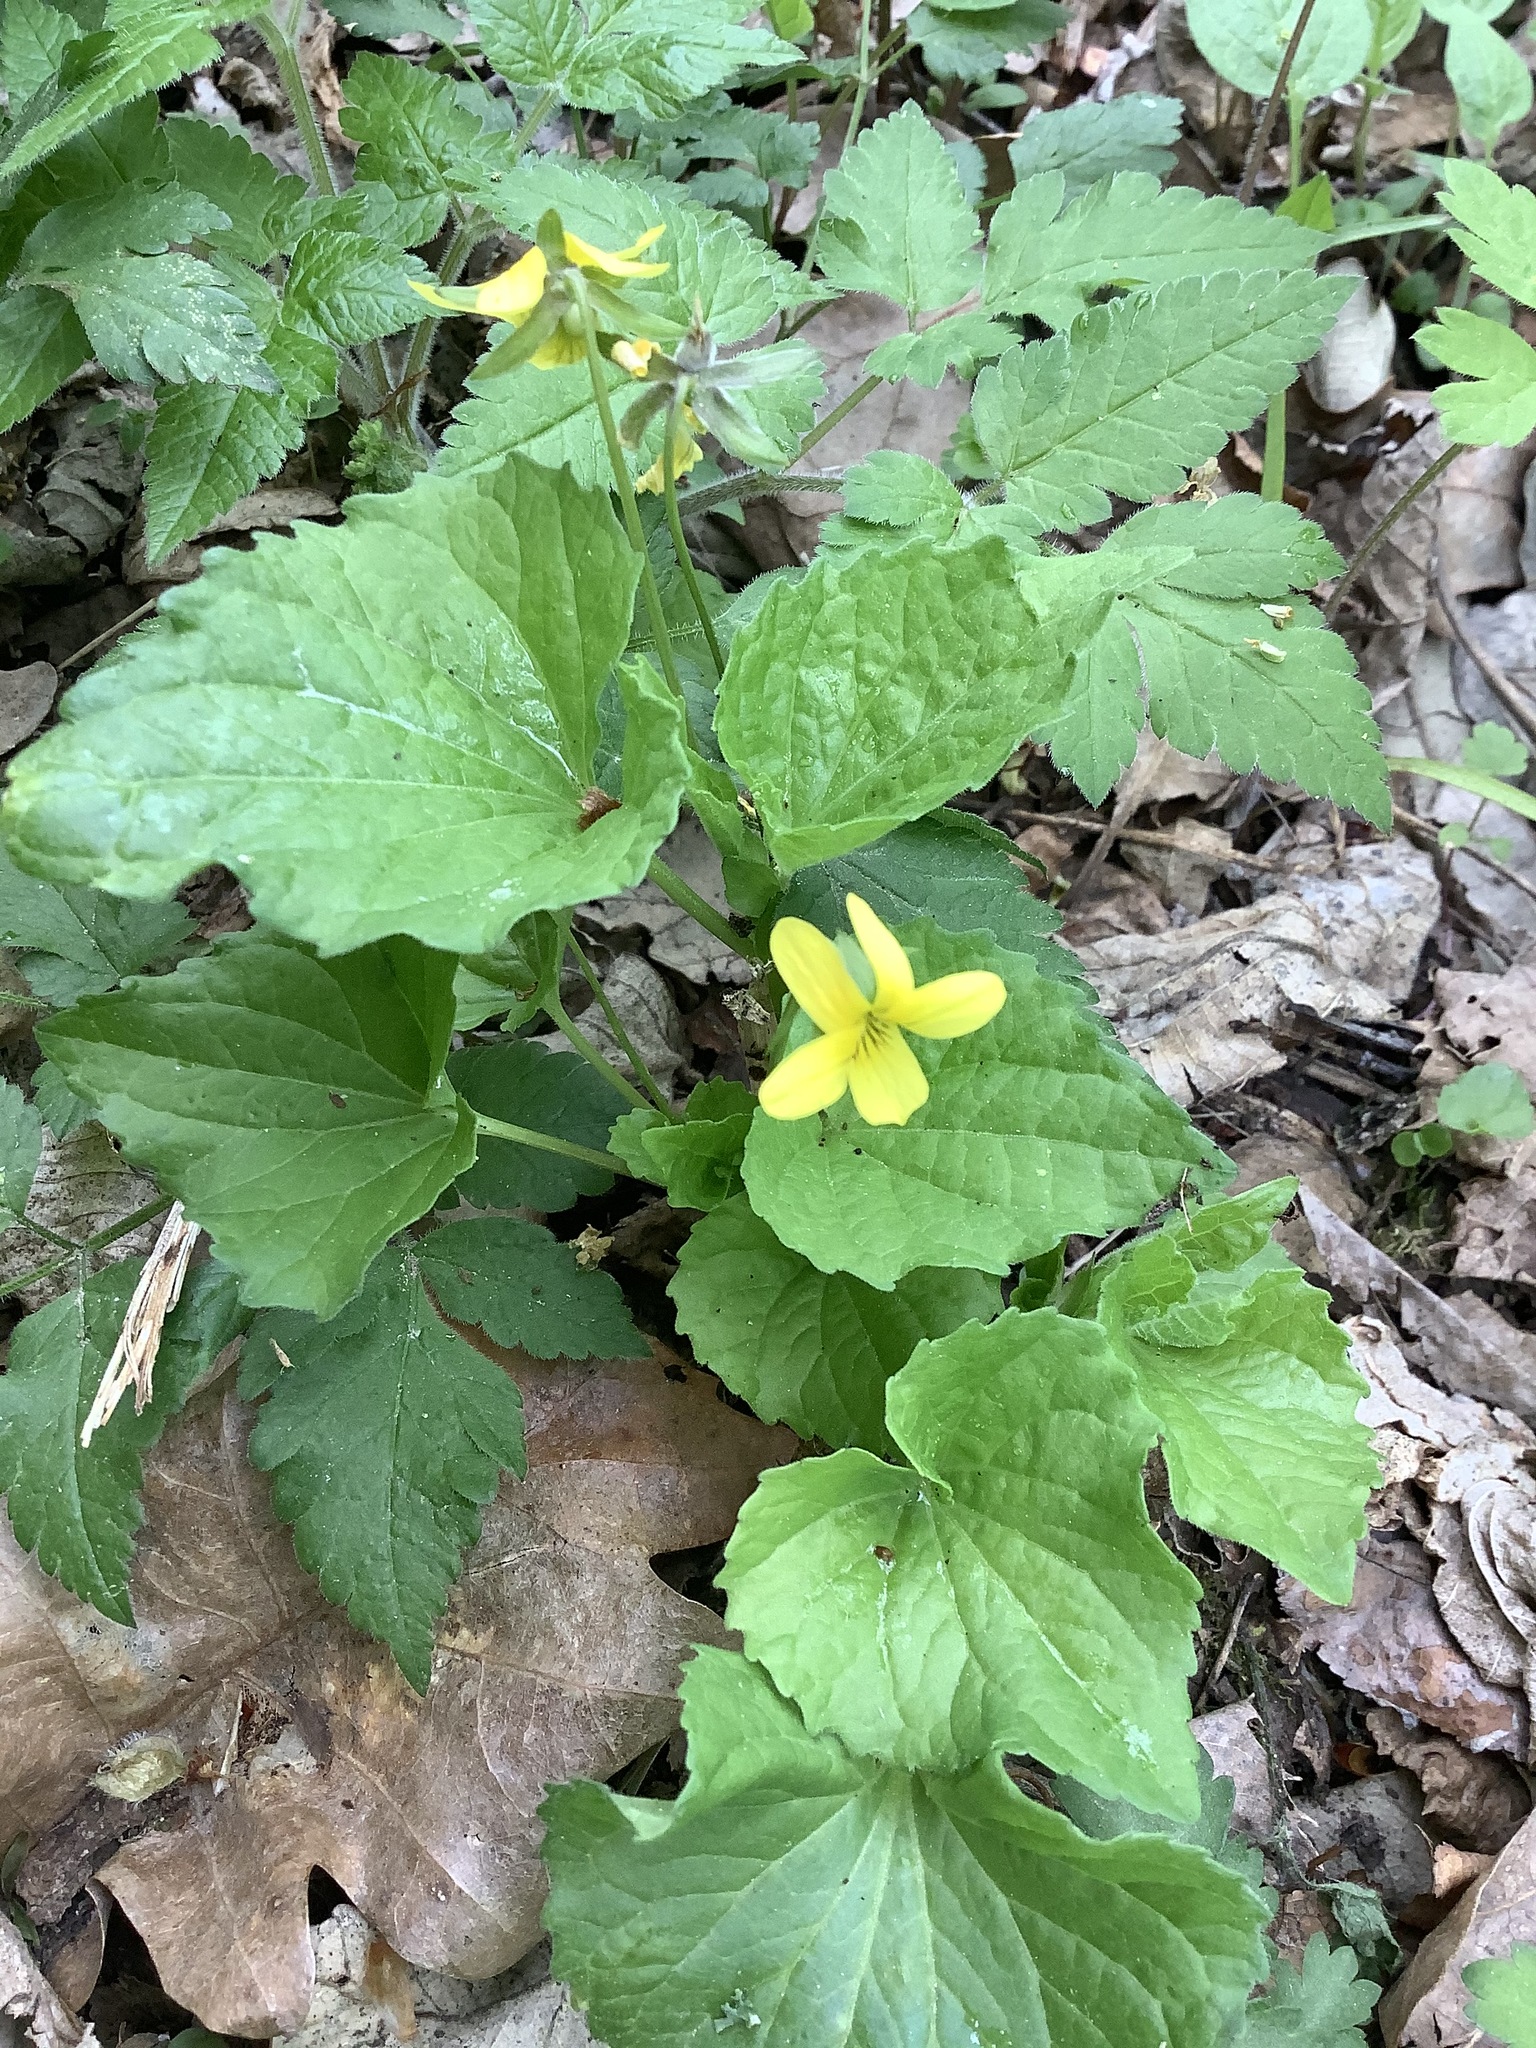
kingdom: Plantae
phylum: Tracheophyta
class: Magnoliopsida
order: Malpighiales
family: Violaceae
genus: Viola
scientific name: Viola eriocarpa
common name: Smooth yellow violet
